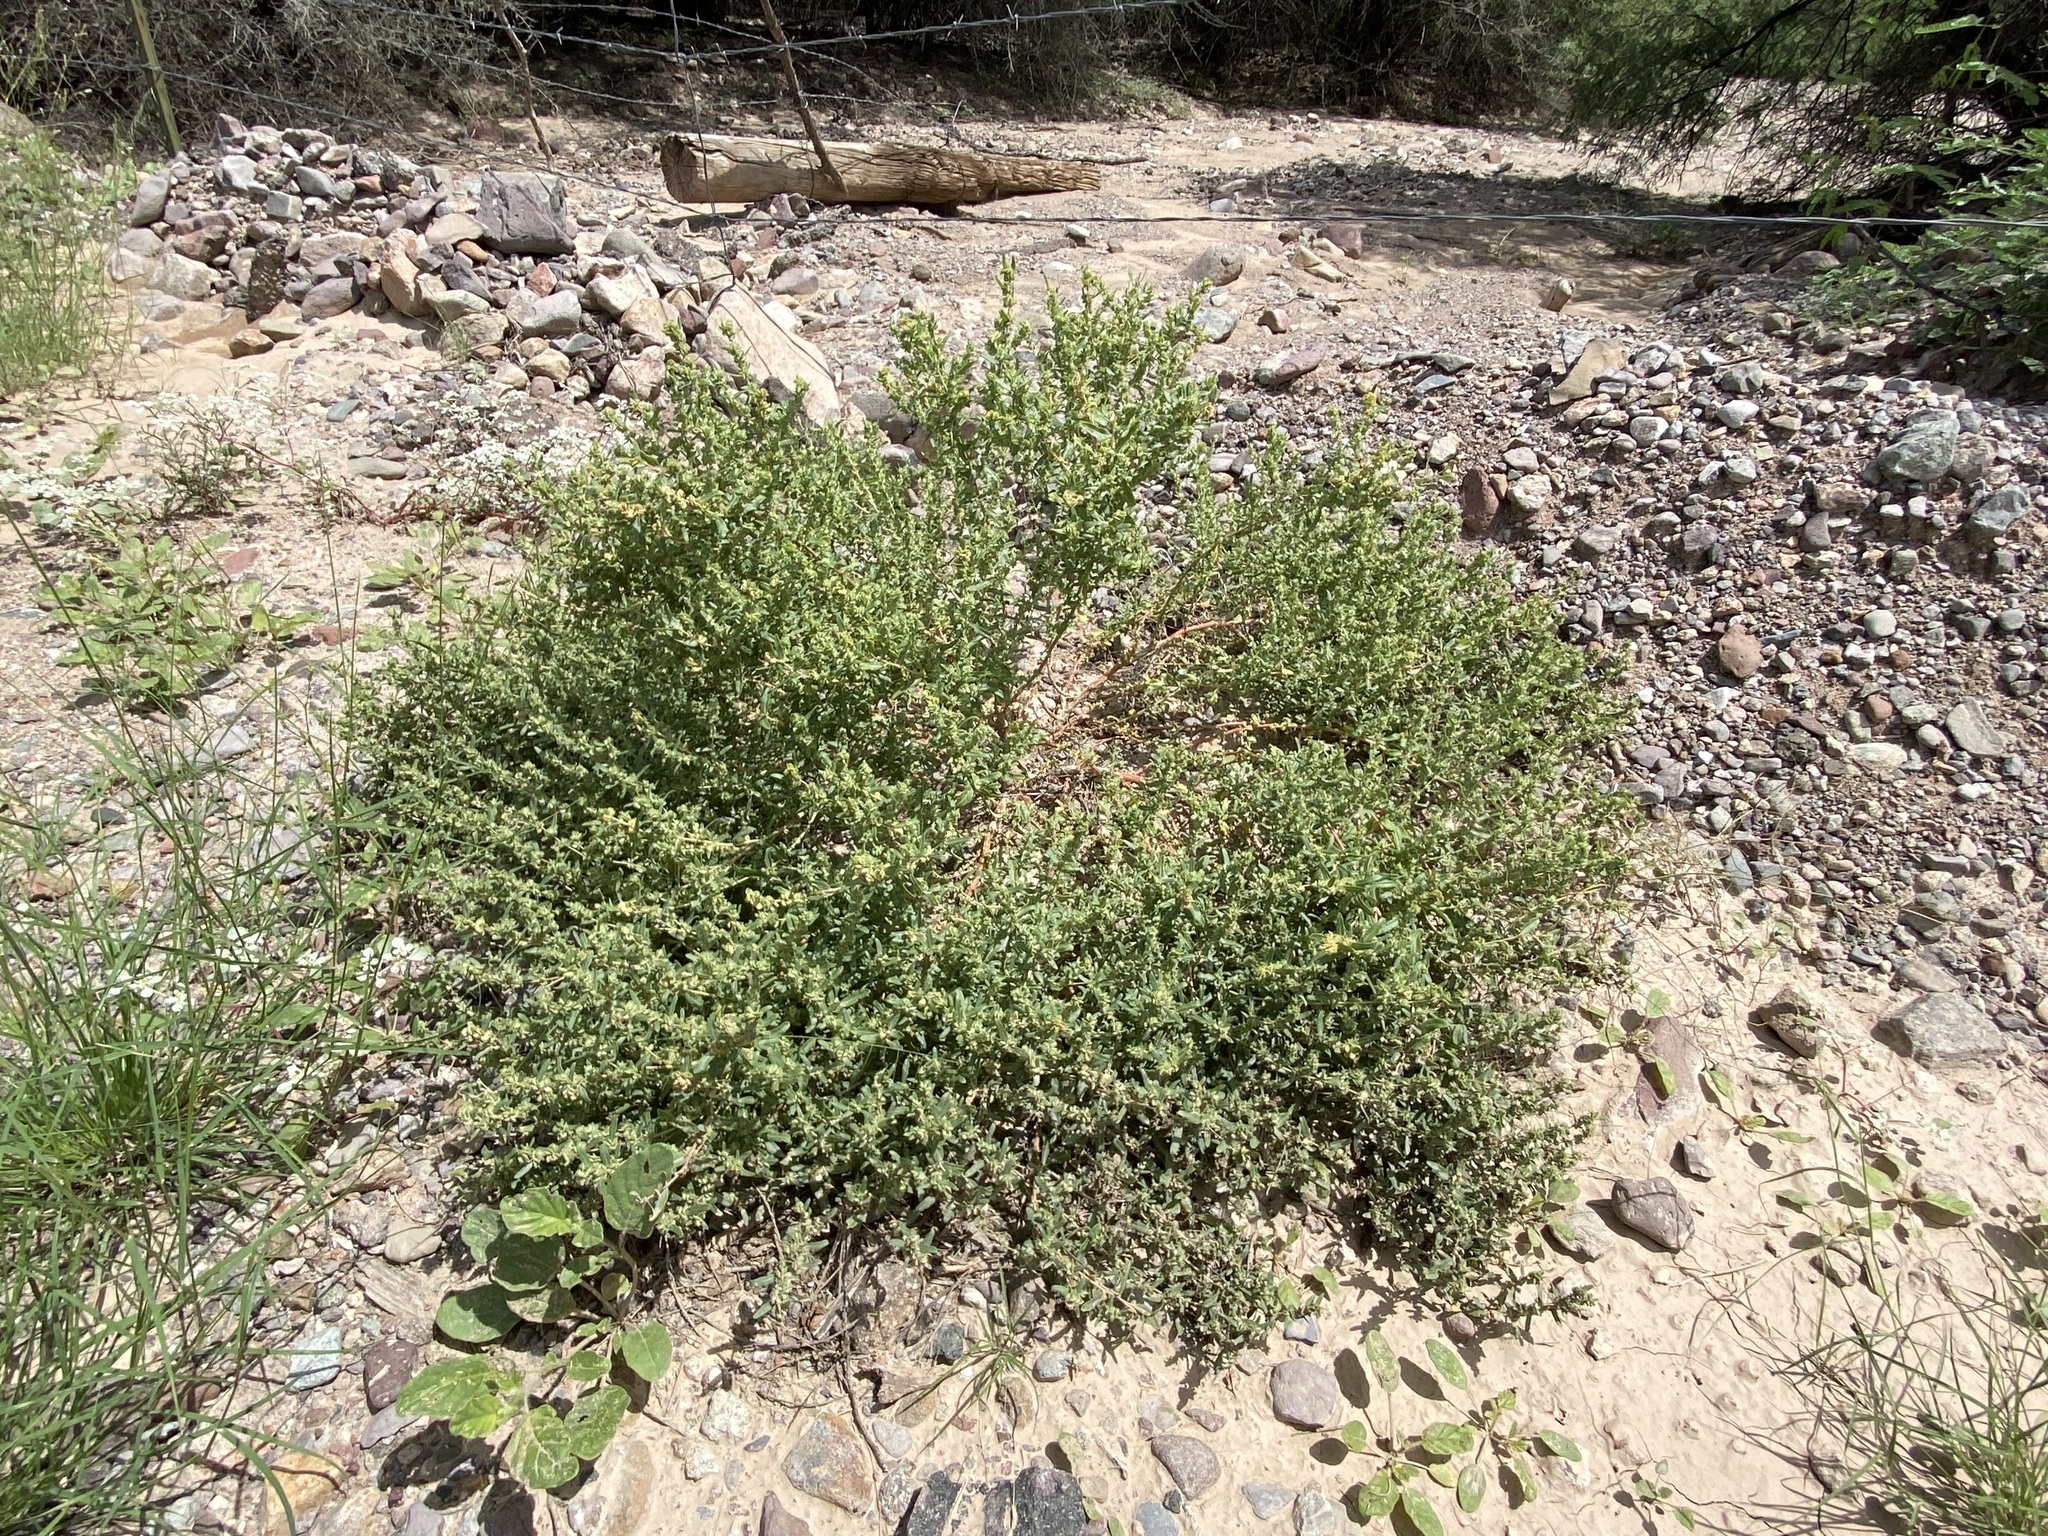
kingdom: Plantae
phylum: Tracheophyta
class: Magnoliopsida
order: Caryophyllales
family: Amaranthaceae
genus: Atriplex
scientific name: Atriplex elegans
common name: Wheelscale orach
